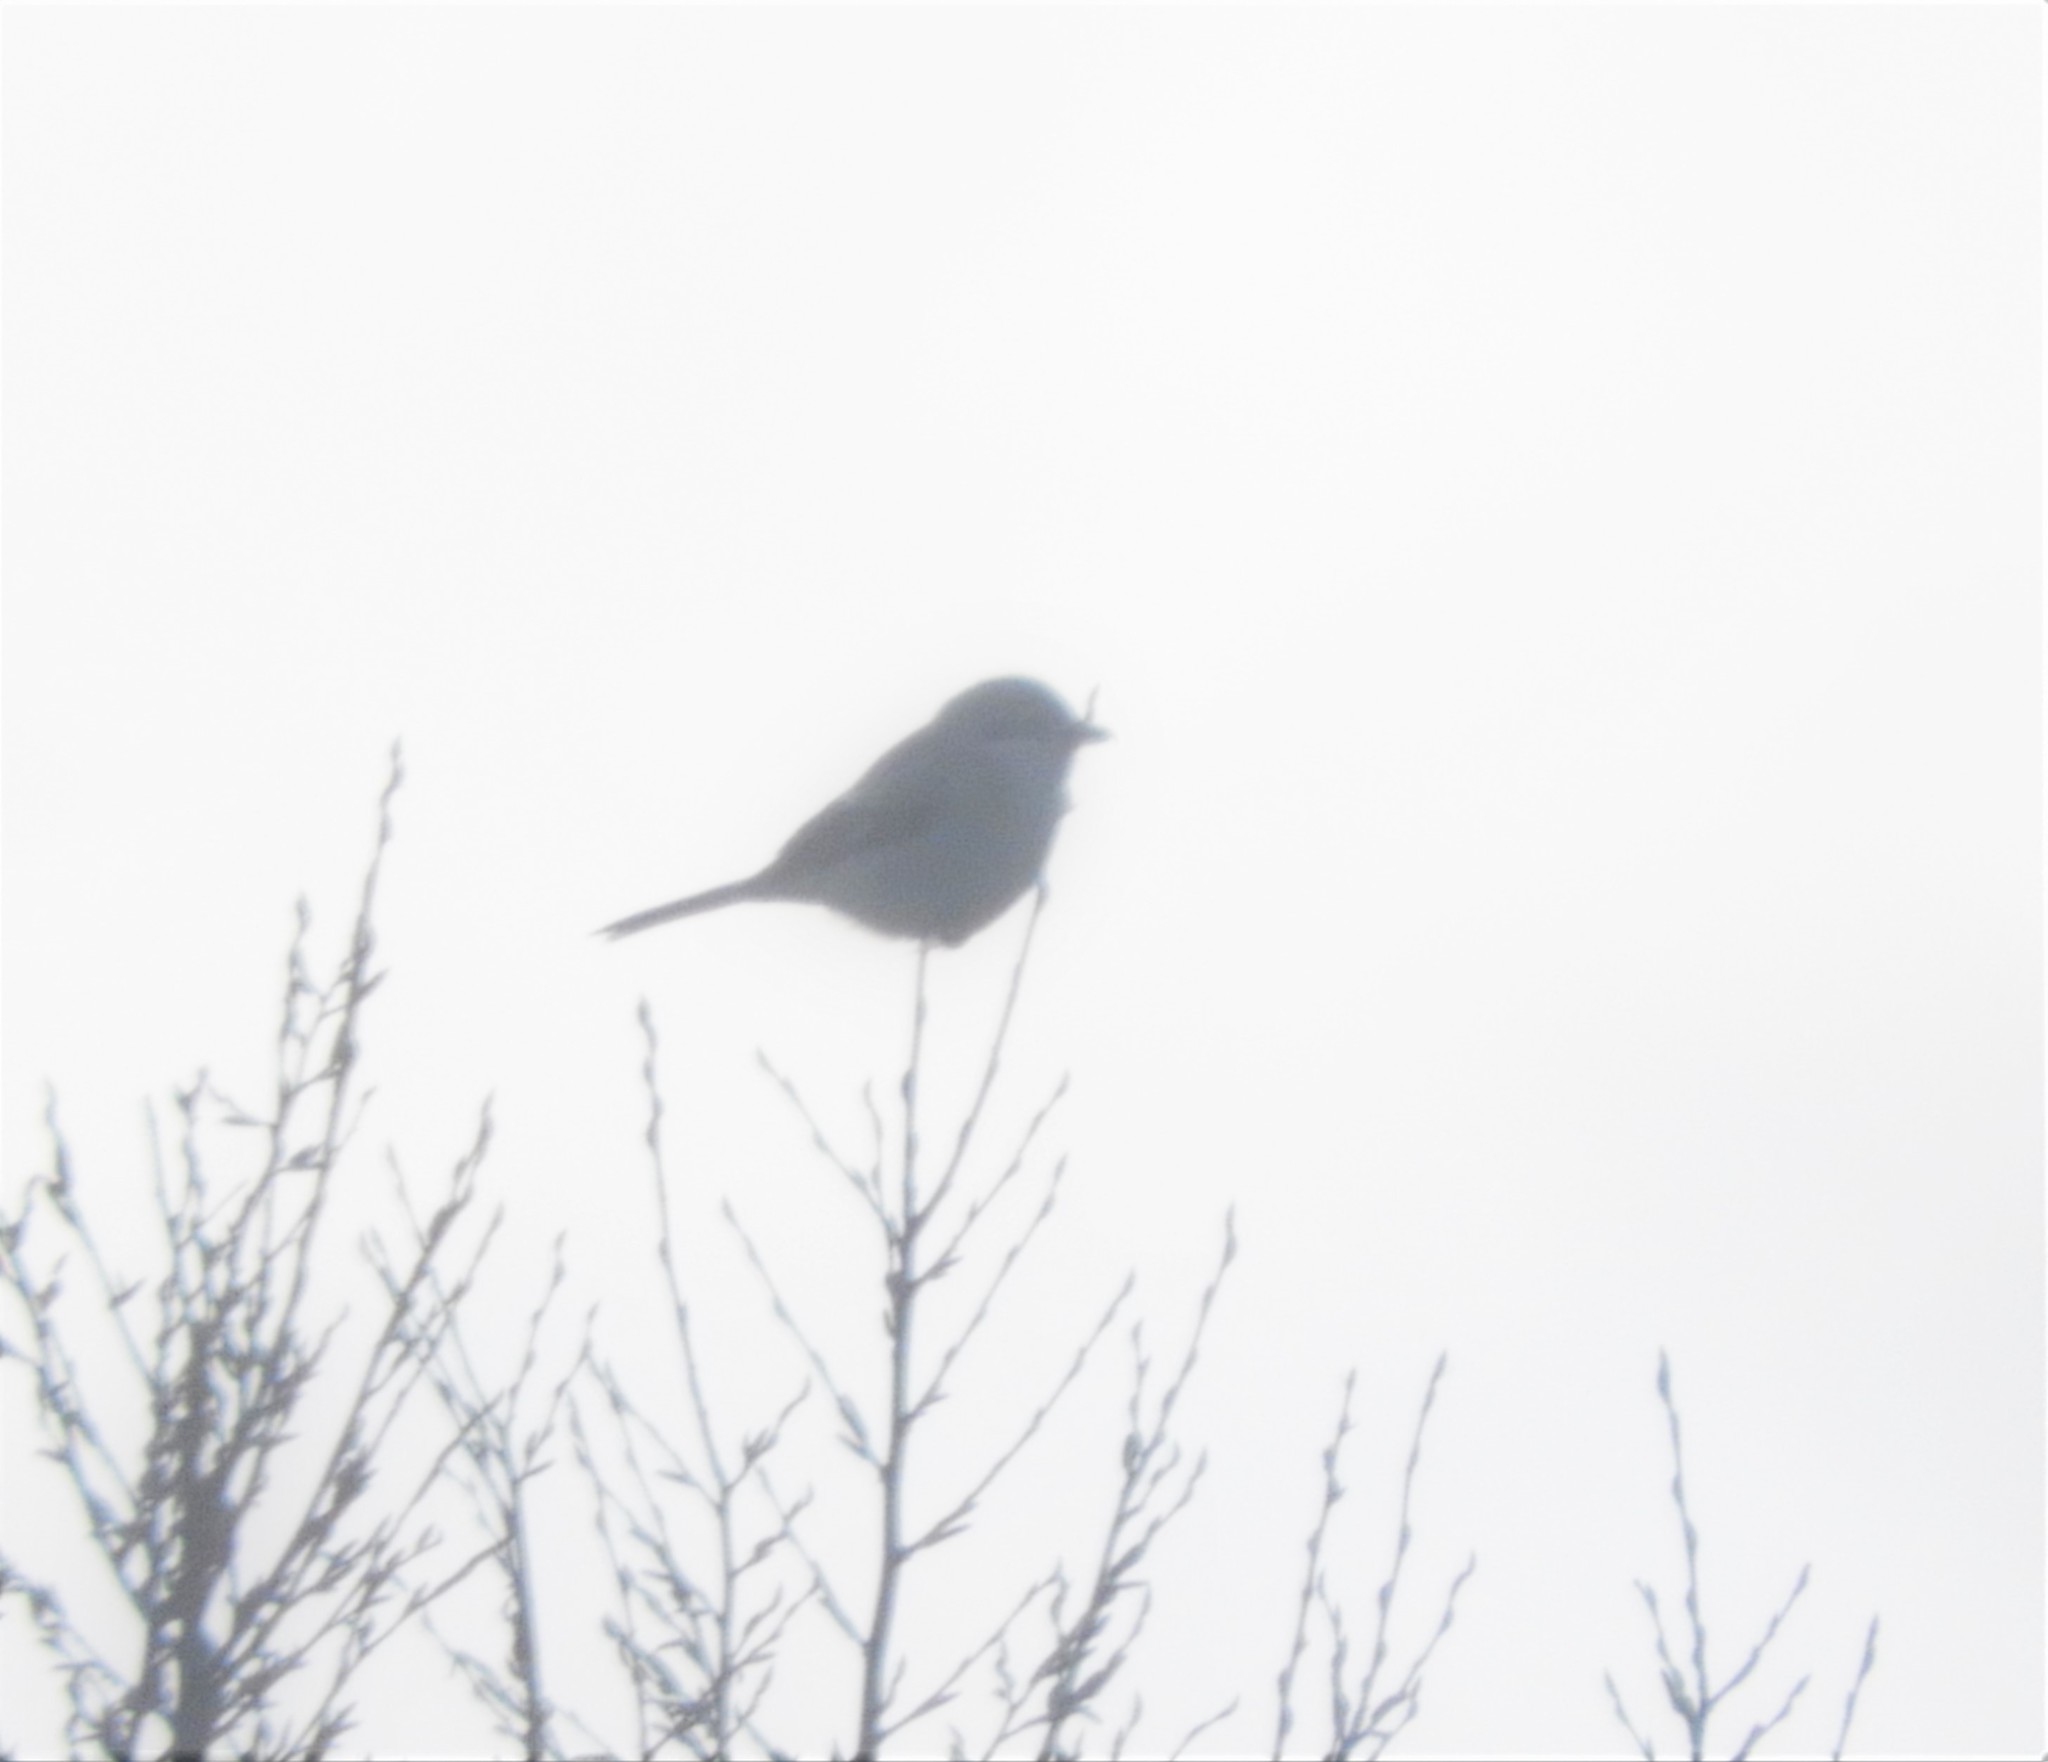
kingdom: Animalia
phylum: Chordata
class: Aves
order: Passeriformes
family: Laniidae
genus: Lanius
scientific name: Lanius borealis
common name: Northern shrike
